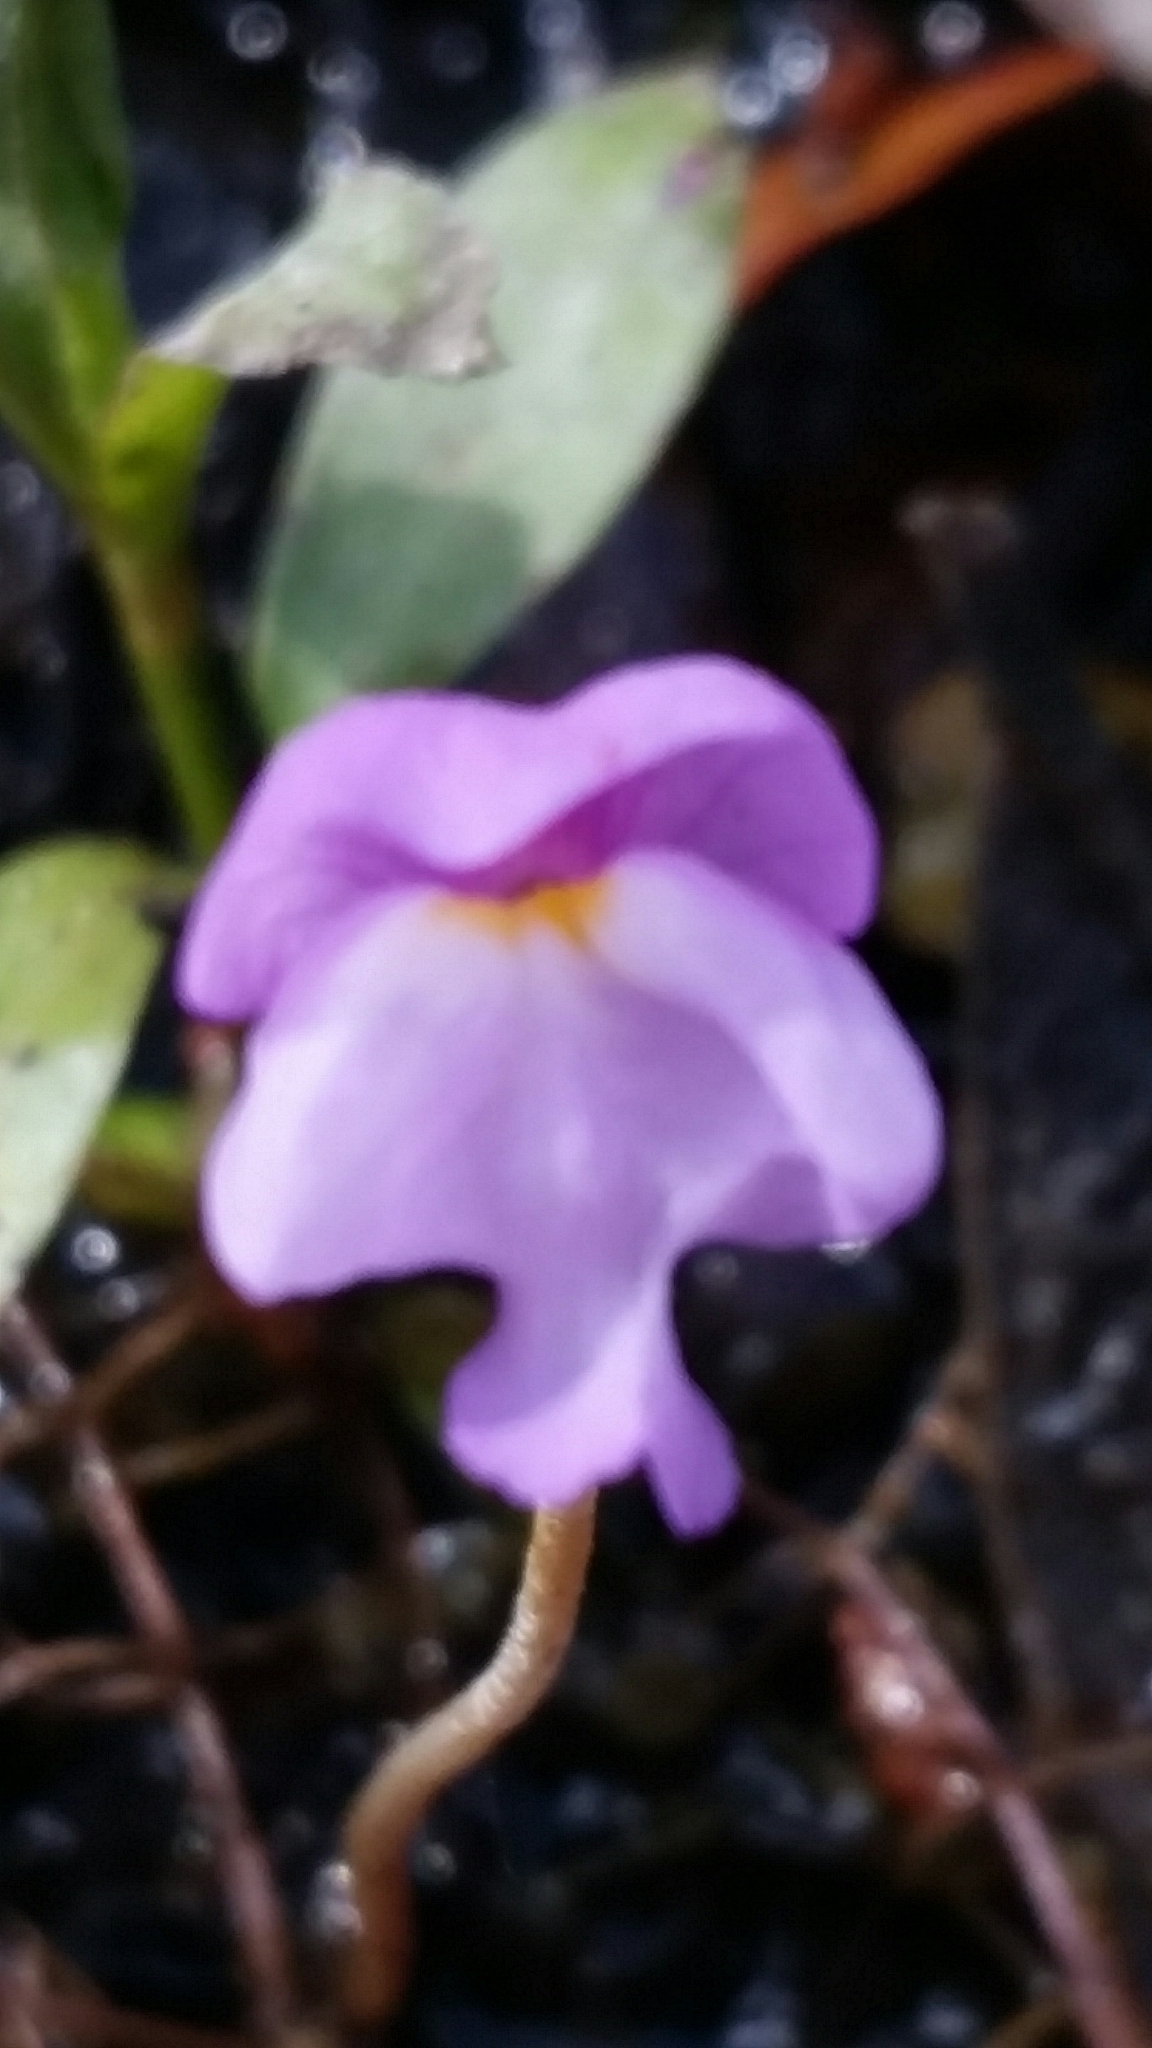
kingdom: Plantae
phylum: Tracheophyta
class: Magnoliopsida
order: Lamiales
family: Lentibulariaceae
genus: Utricularia
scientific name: Utricularia purpurea
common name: Eastern purple bladderwort
